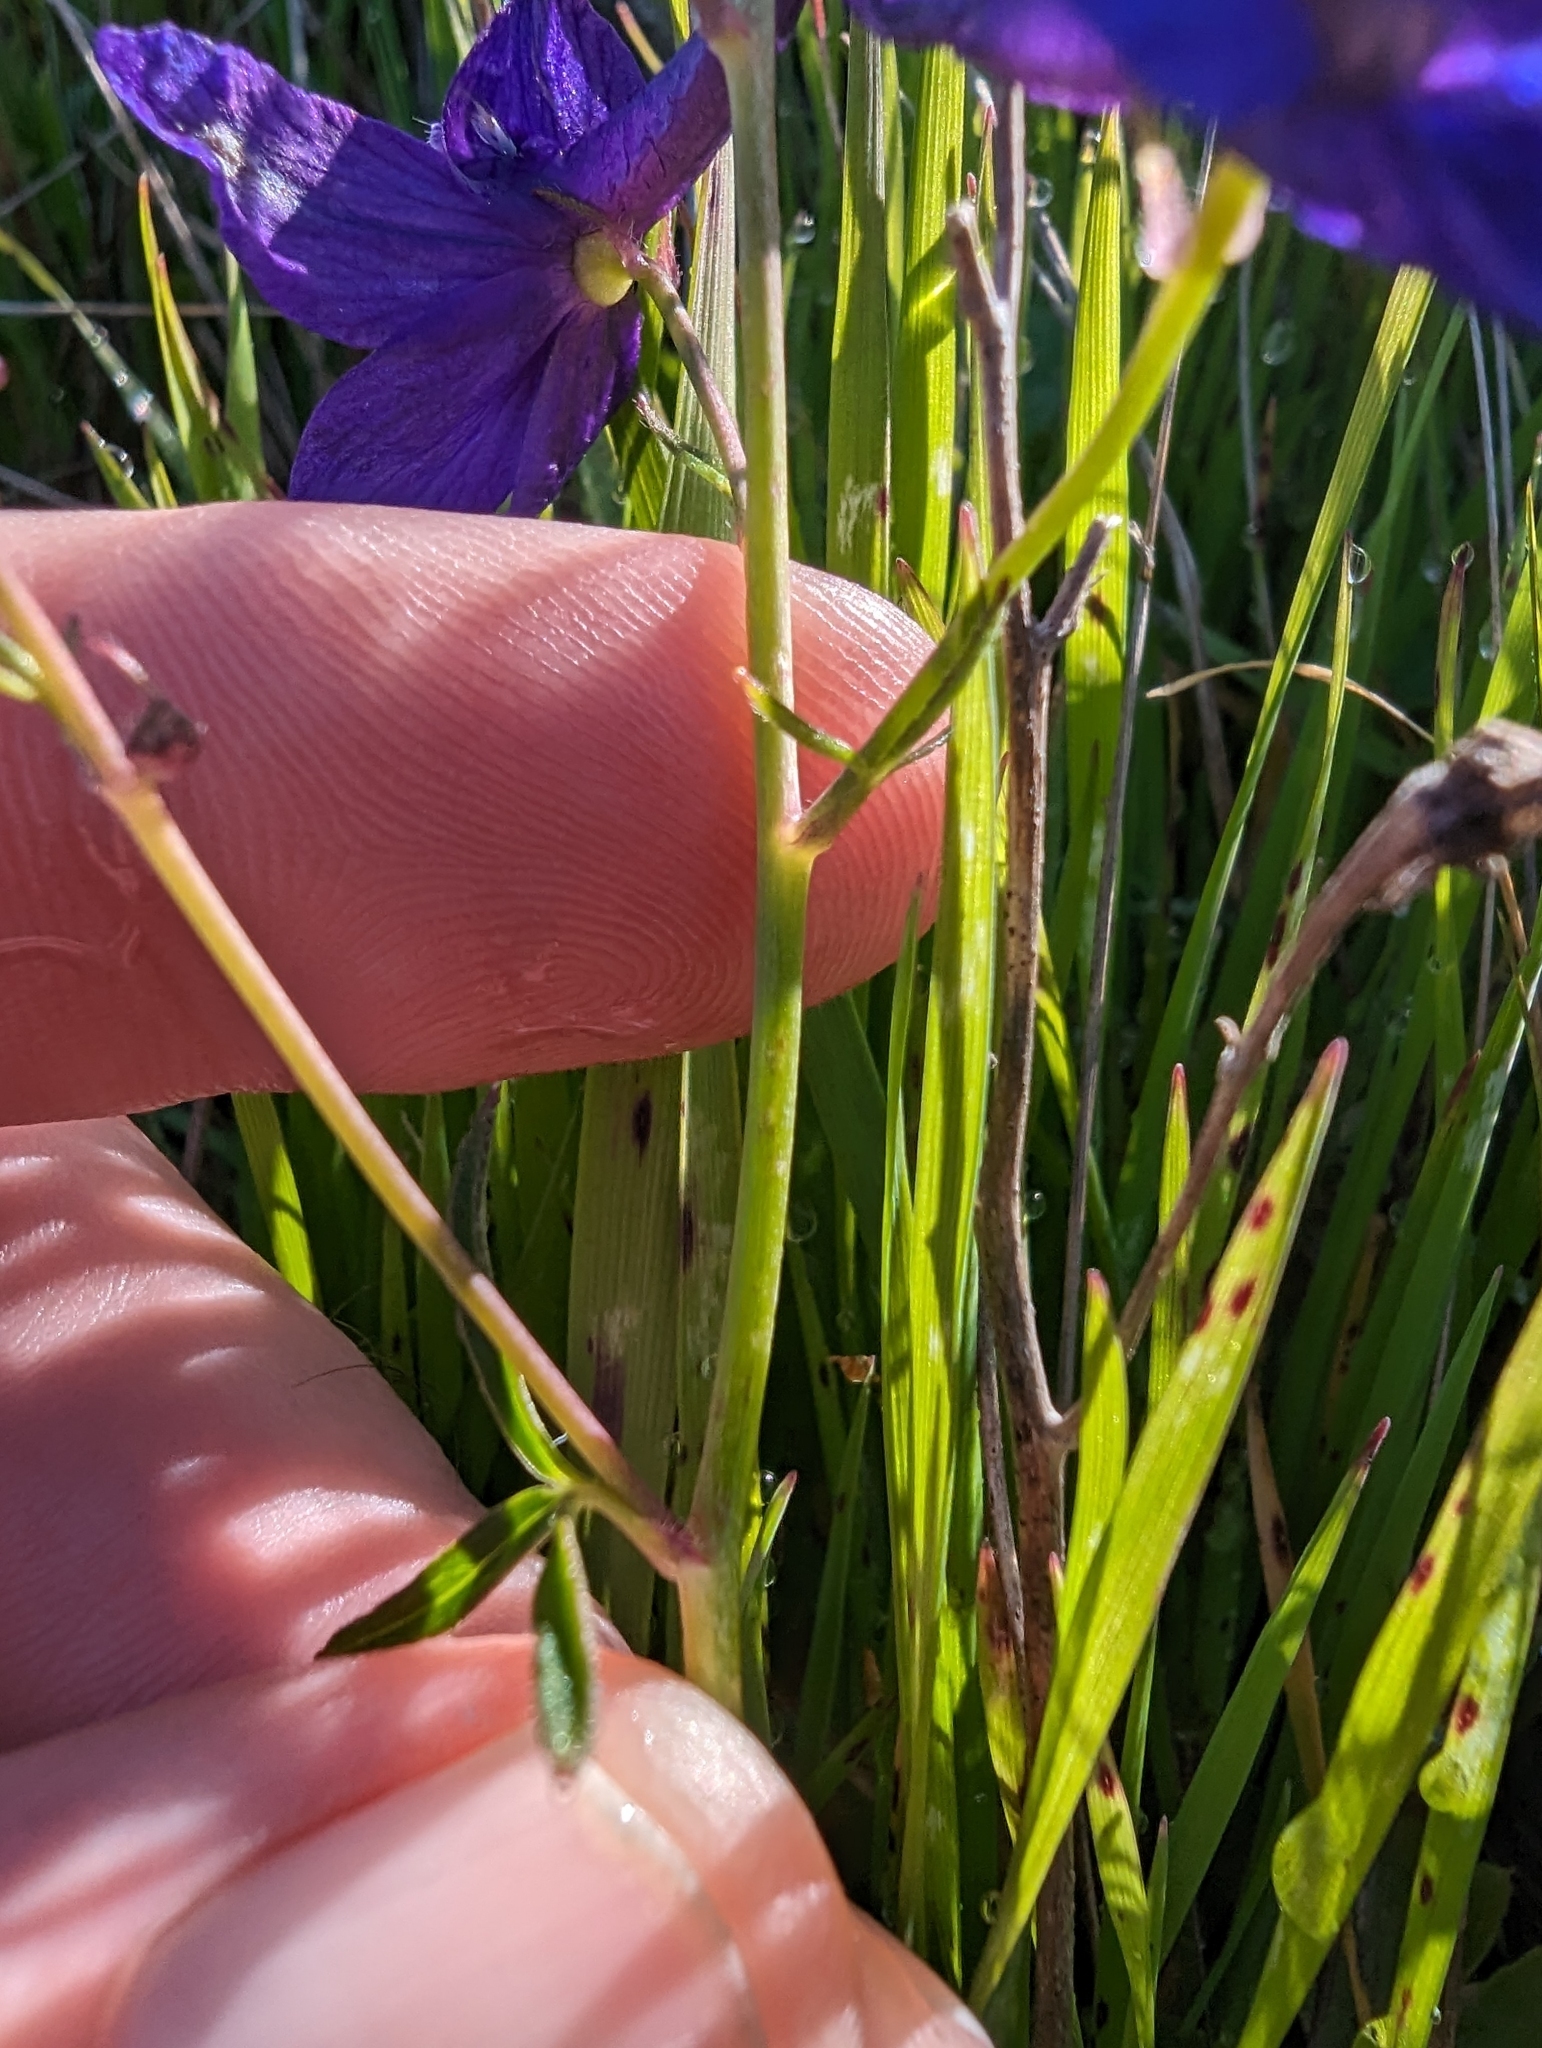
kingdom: Plantae
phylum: Tracheophyta
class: Magnoliopsida
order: Ranunculales
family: Ranunculaceae
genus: Delphinium
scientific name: Delphinium decorum
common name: Coast larkspur
